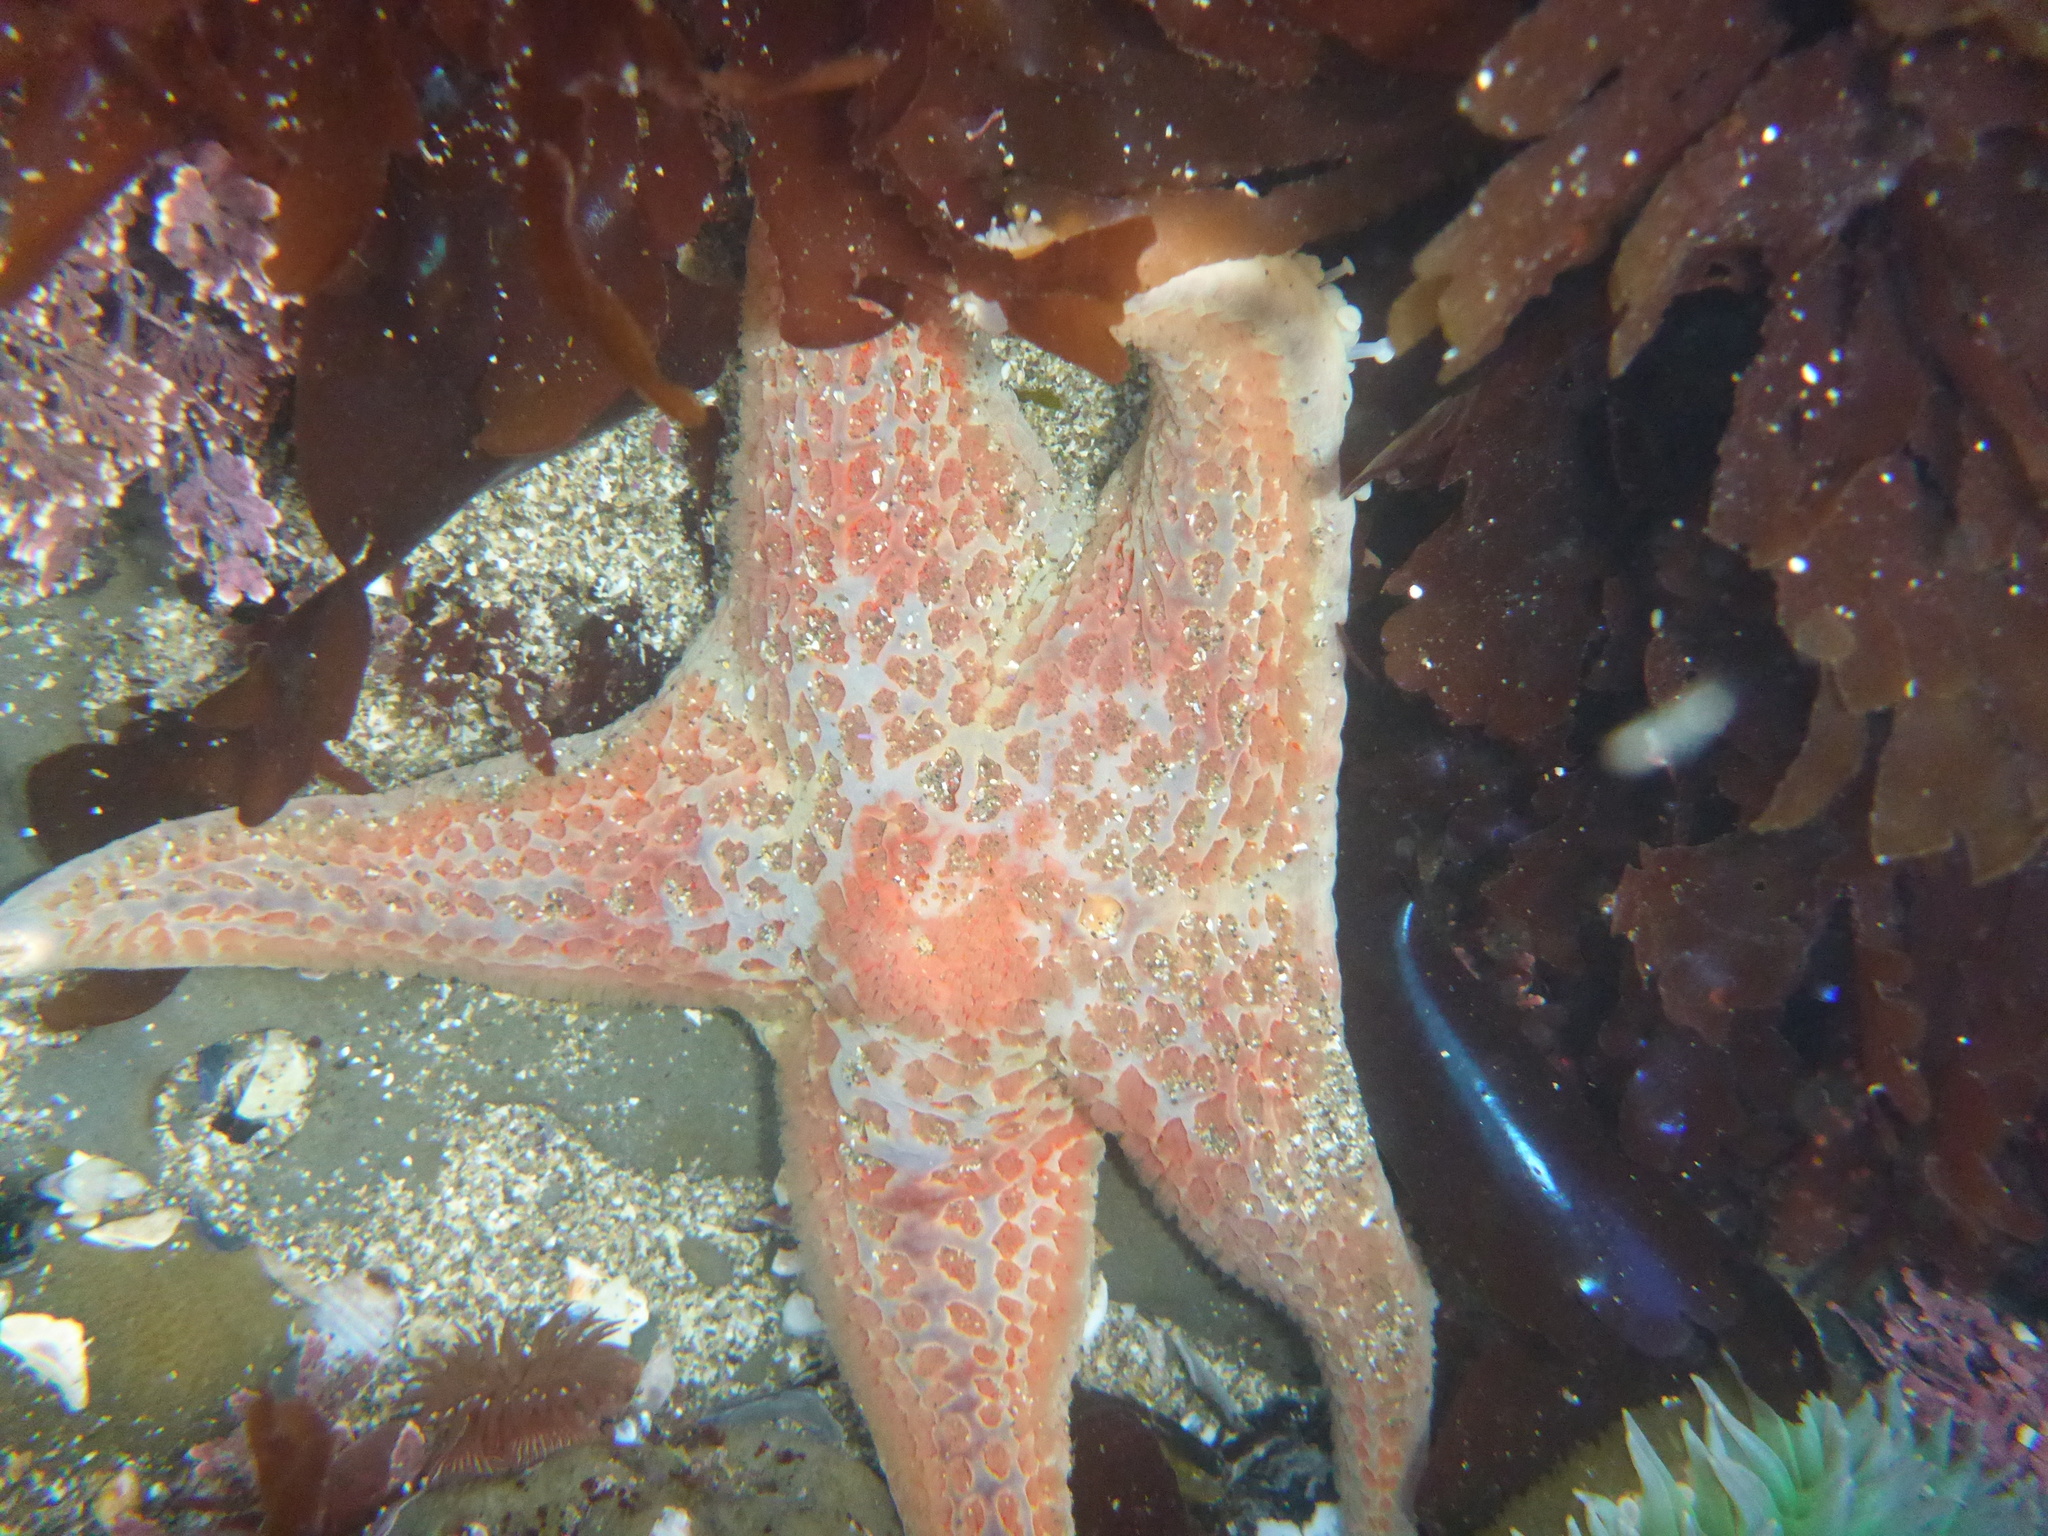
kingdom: Animalia
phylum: Echinodermata
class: Asteroidea
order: Valvatida
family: Asteropseidae
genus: Dermasterias
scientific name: Dermasterias imbricata
